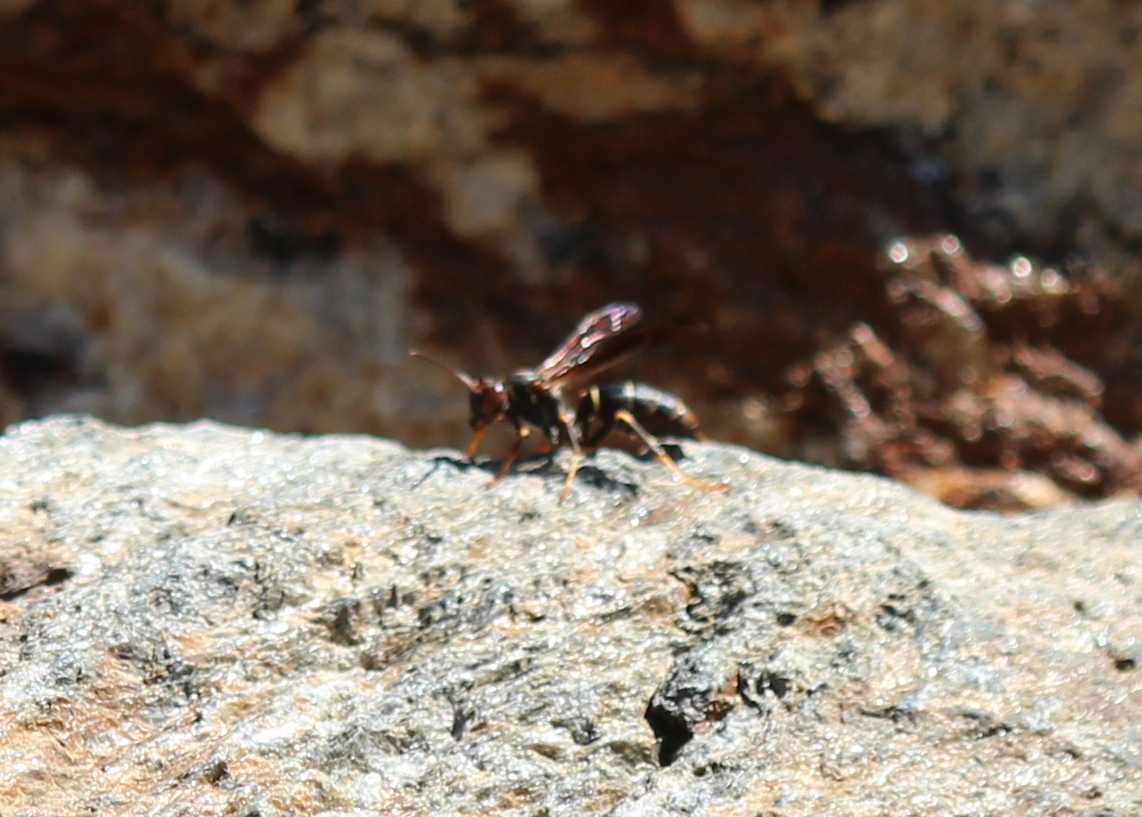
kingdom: Animalia
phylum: Arthropoda
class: Insecta
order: Hymenoptera
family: Eumenidae
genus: Polistes
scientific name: Polistes fuscatus
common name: Dark paper wasp
